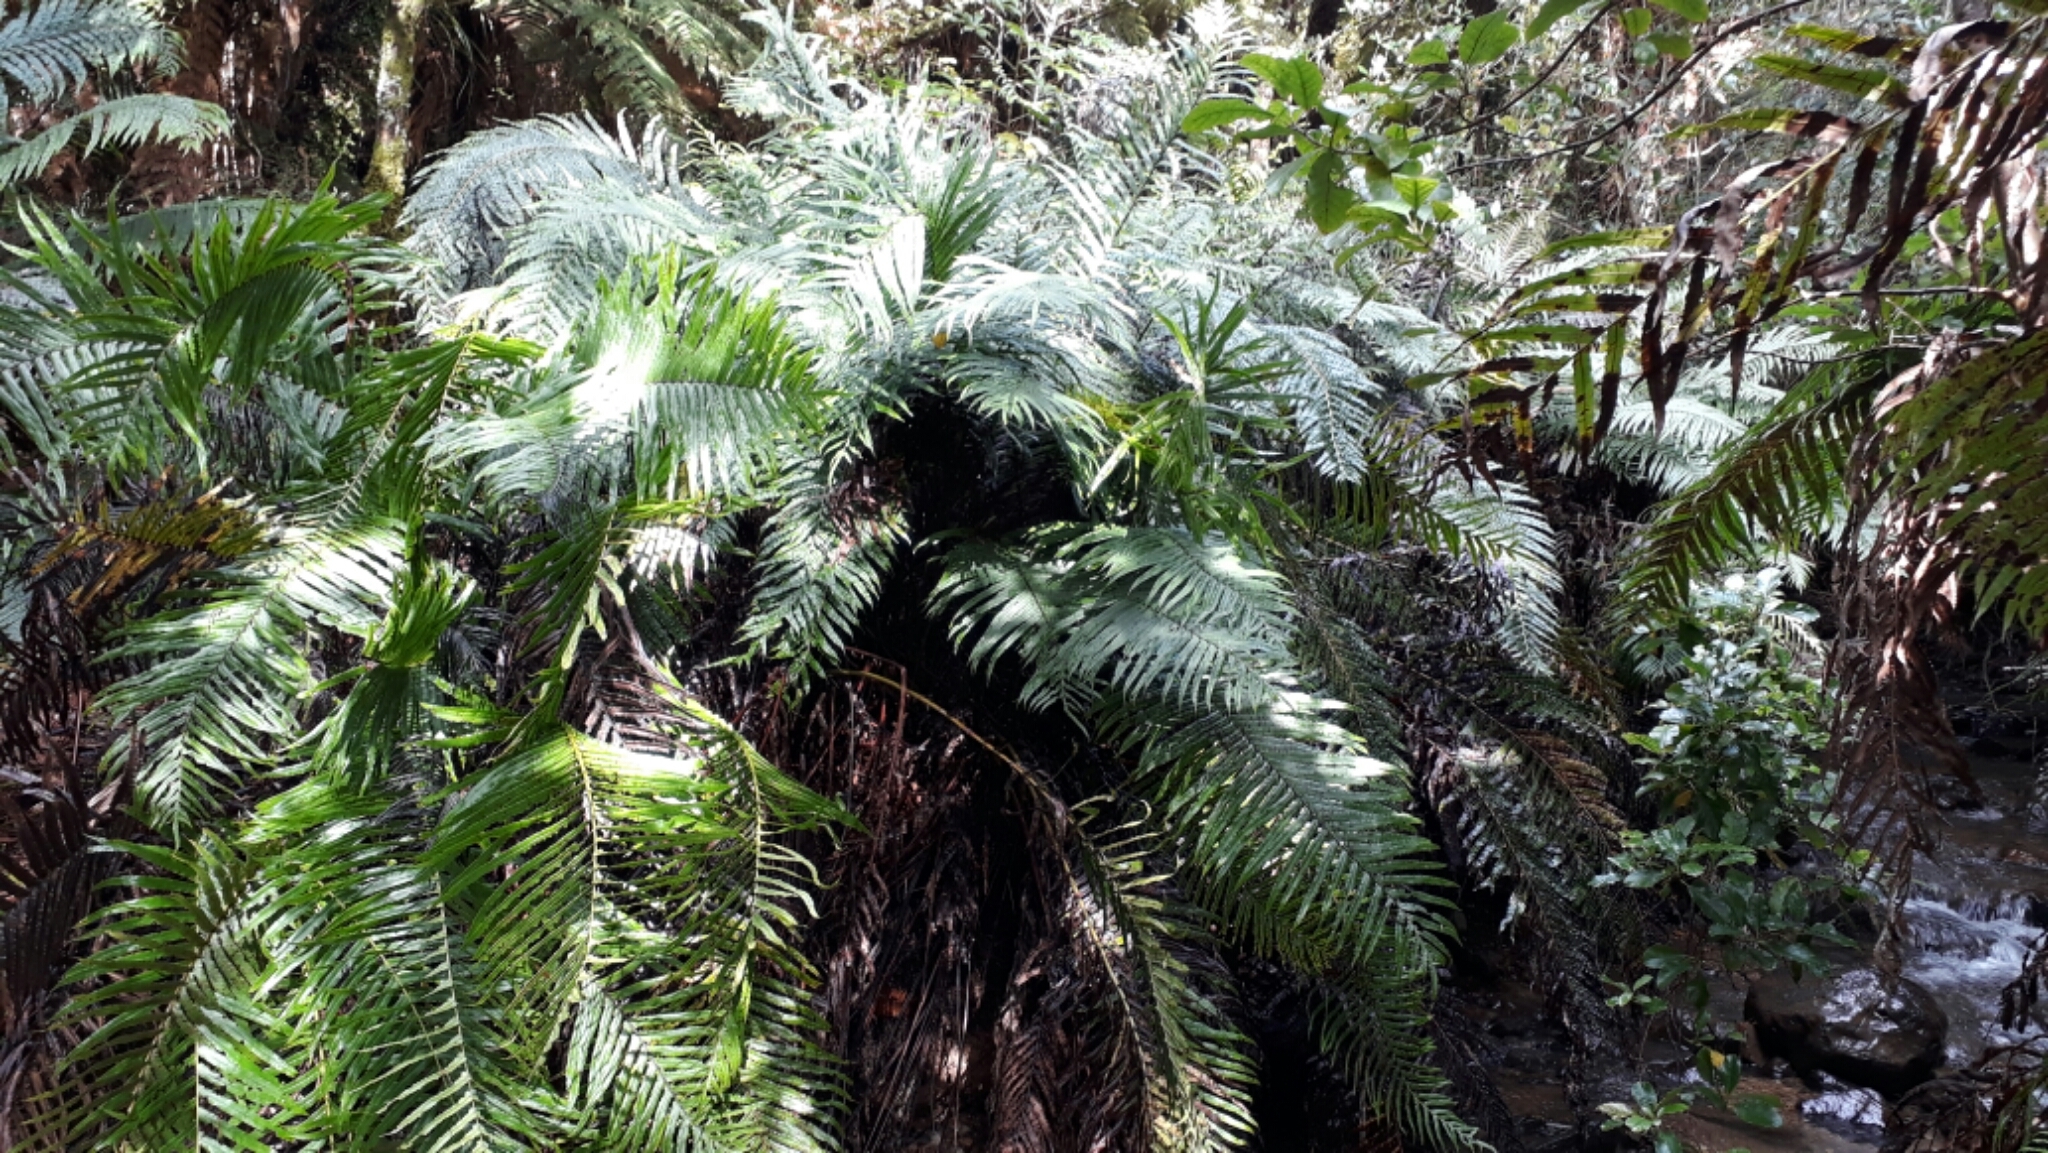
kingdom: Plantae
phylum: Tracheophyta
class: Polypodiopsida
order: Polypodiales
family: Blechnaceae
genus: Parablechnum
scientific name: Parablechnum novae-zelandiae
